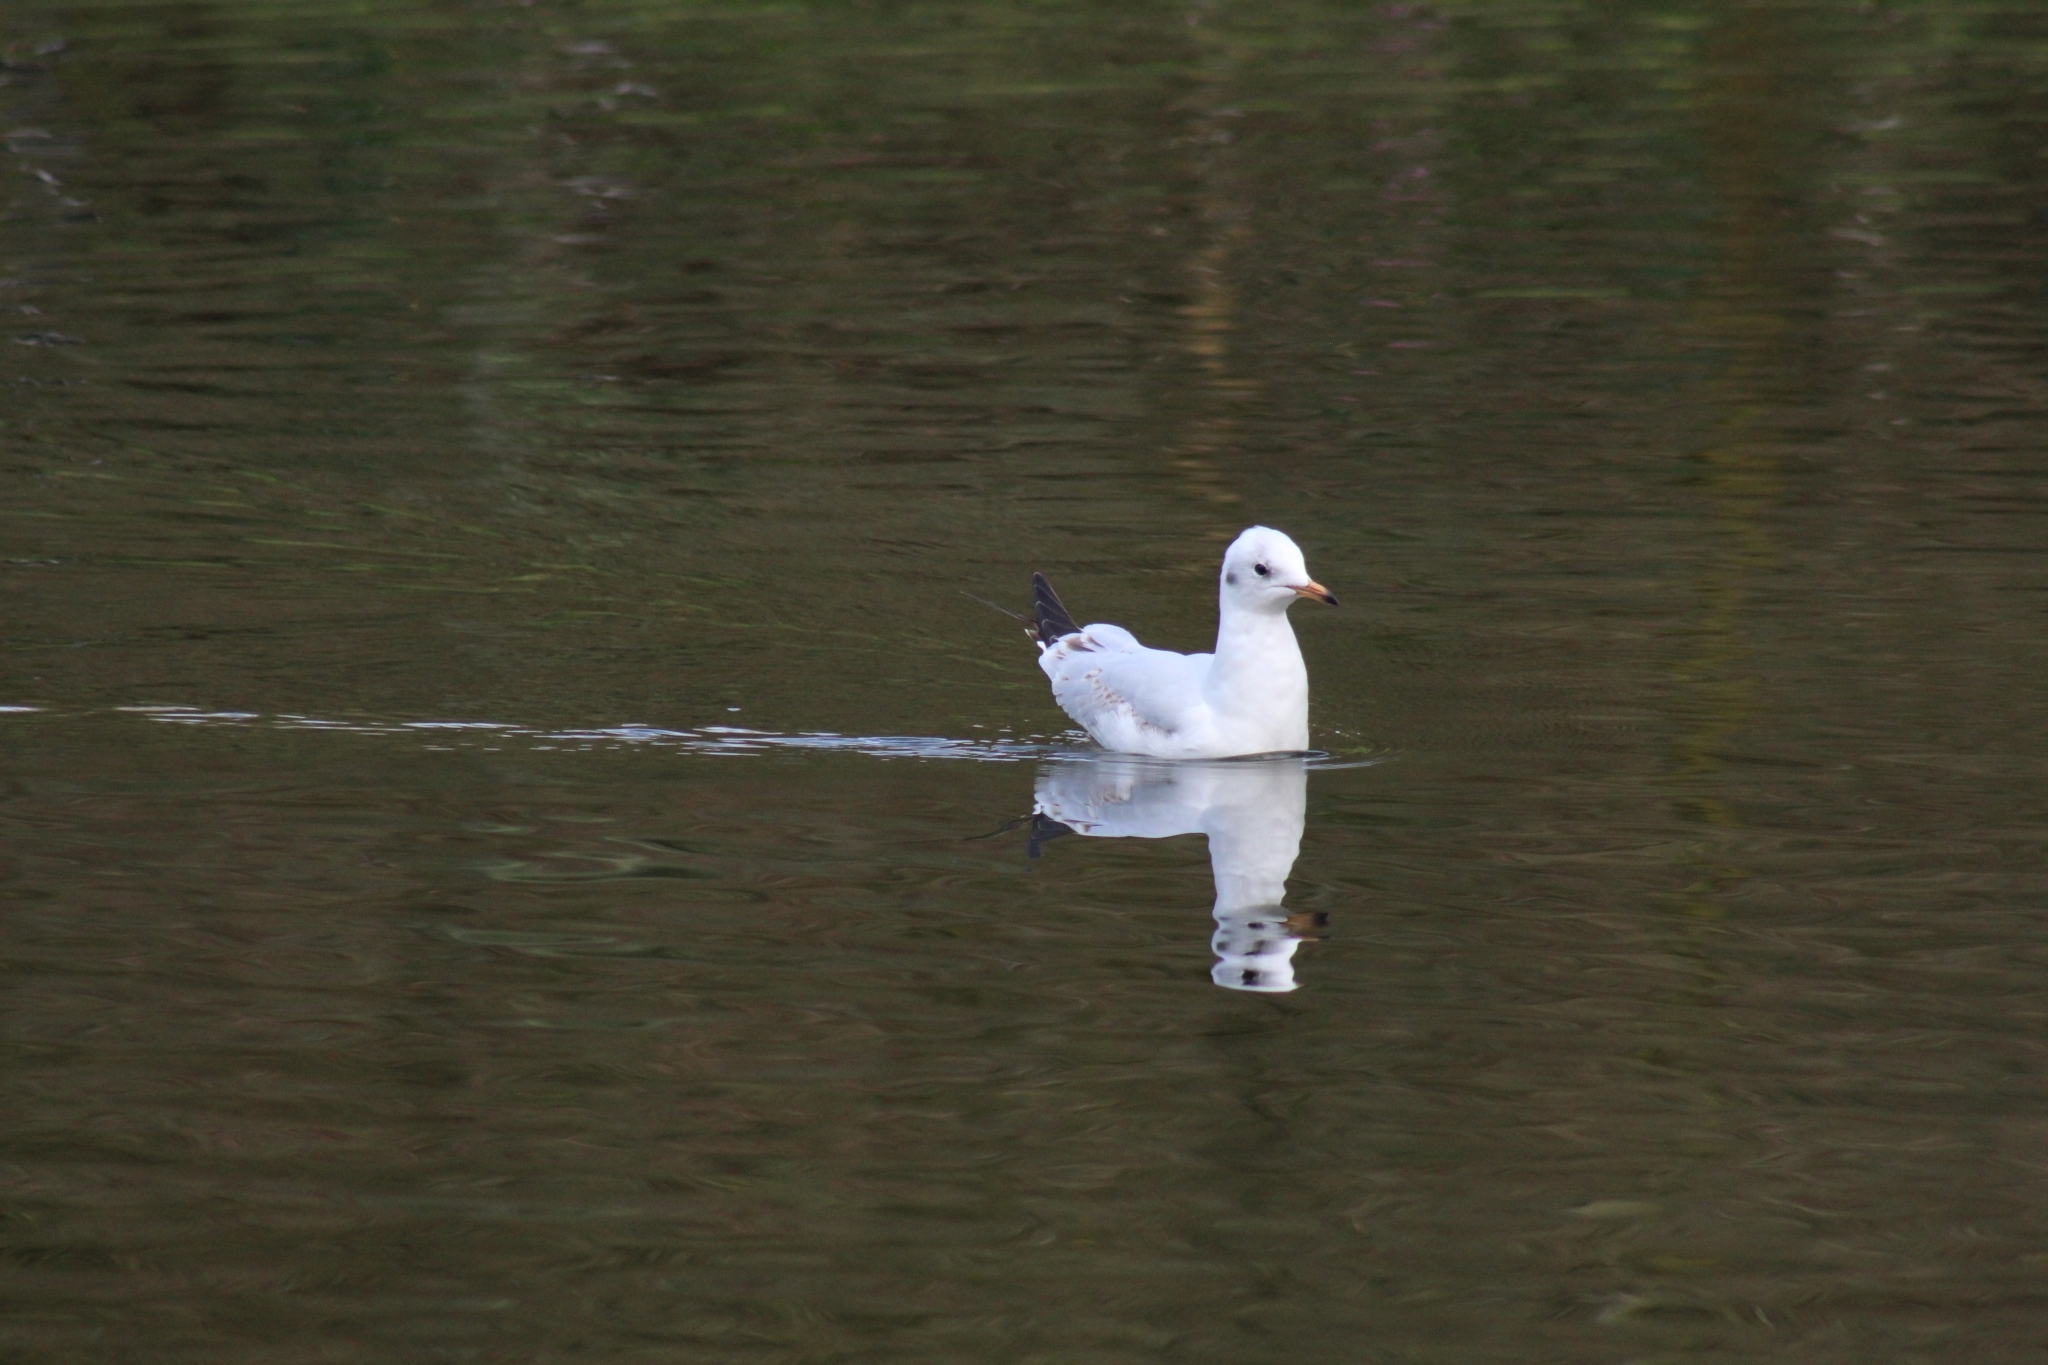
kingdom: Animalia
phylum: Chordata
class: Aves
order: Charadriiformes
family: Laridae
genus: Chroicocephalus
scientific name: Chroicocephalus ridibundus
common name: Black-headed gull
